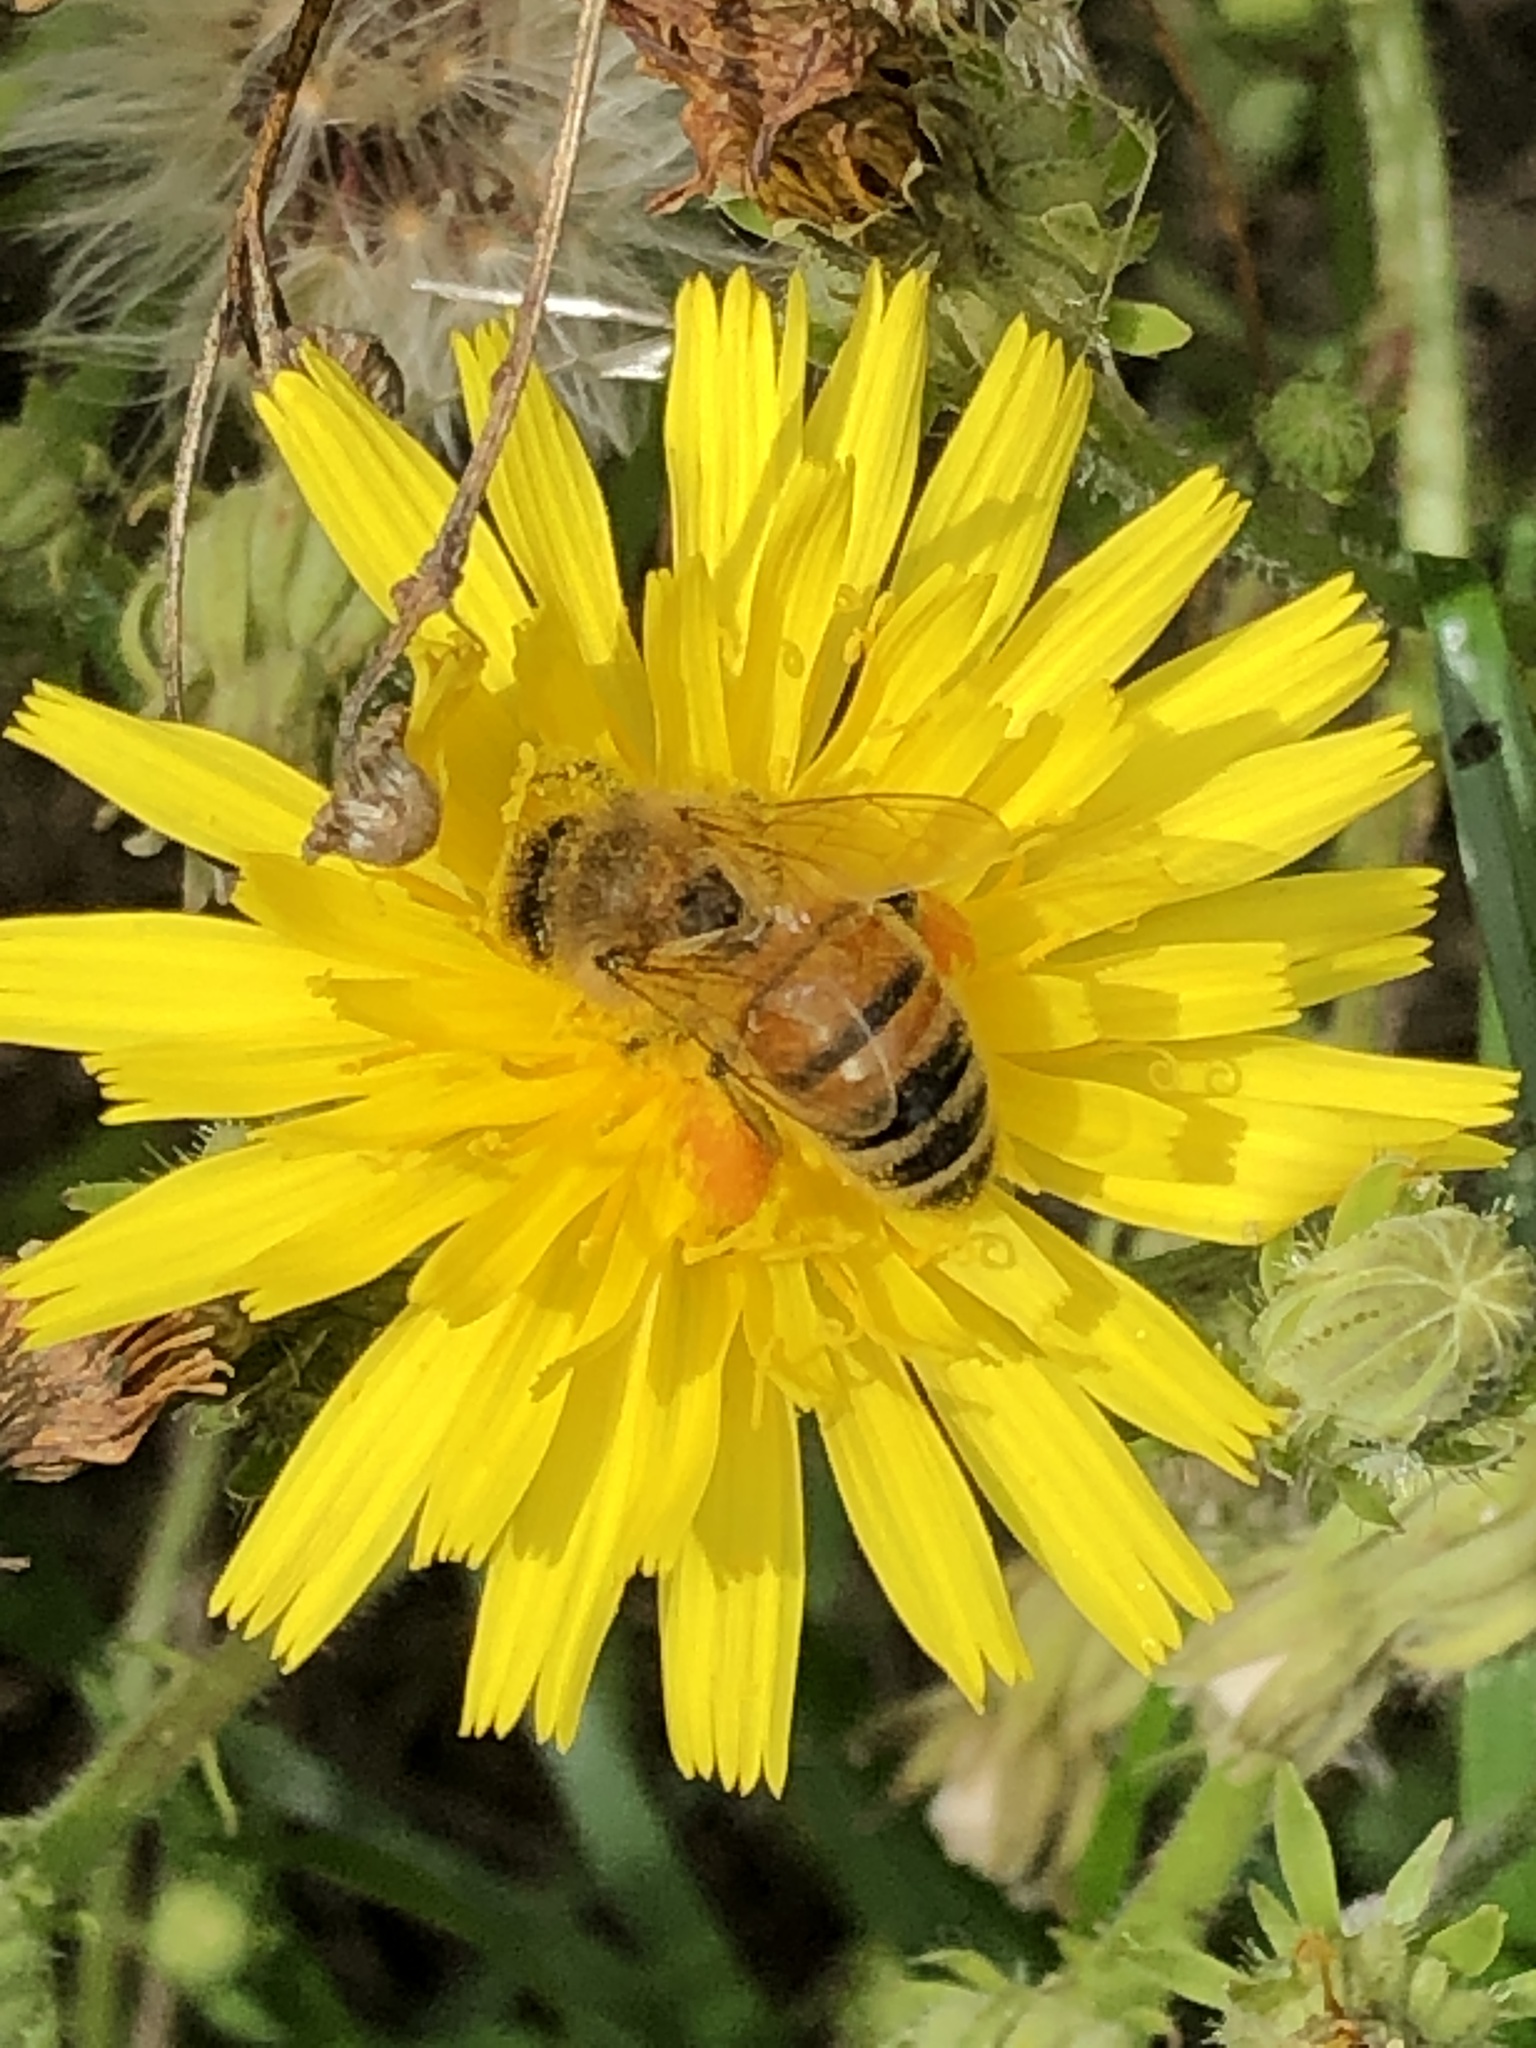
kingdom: Animalia
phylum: Arthropoda
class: Insecta
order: Hymenoptera
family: Apidae
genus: Apis
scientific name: Apis mellifera
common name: Honey bee
